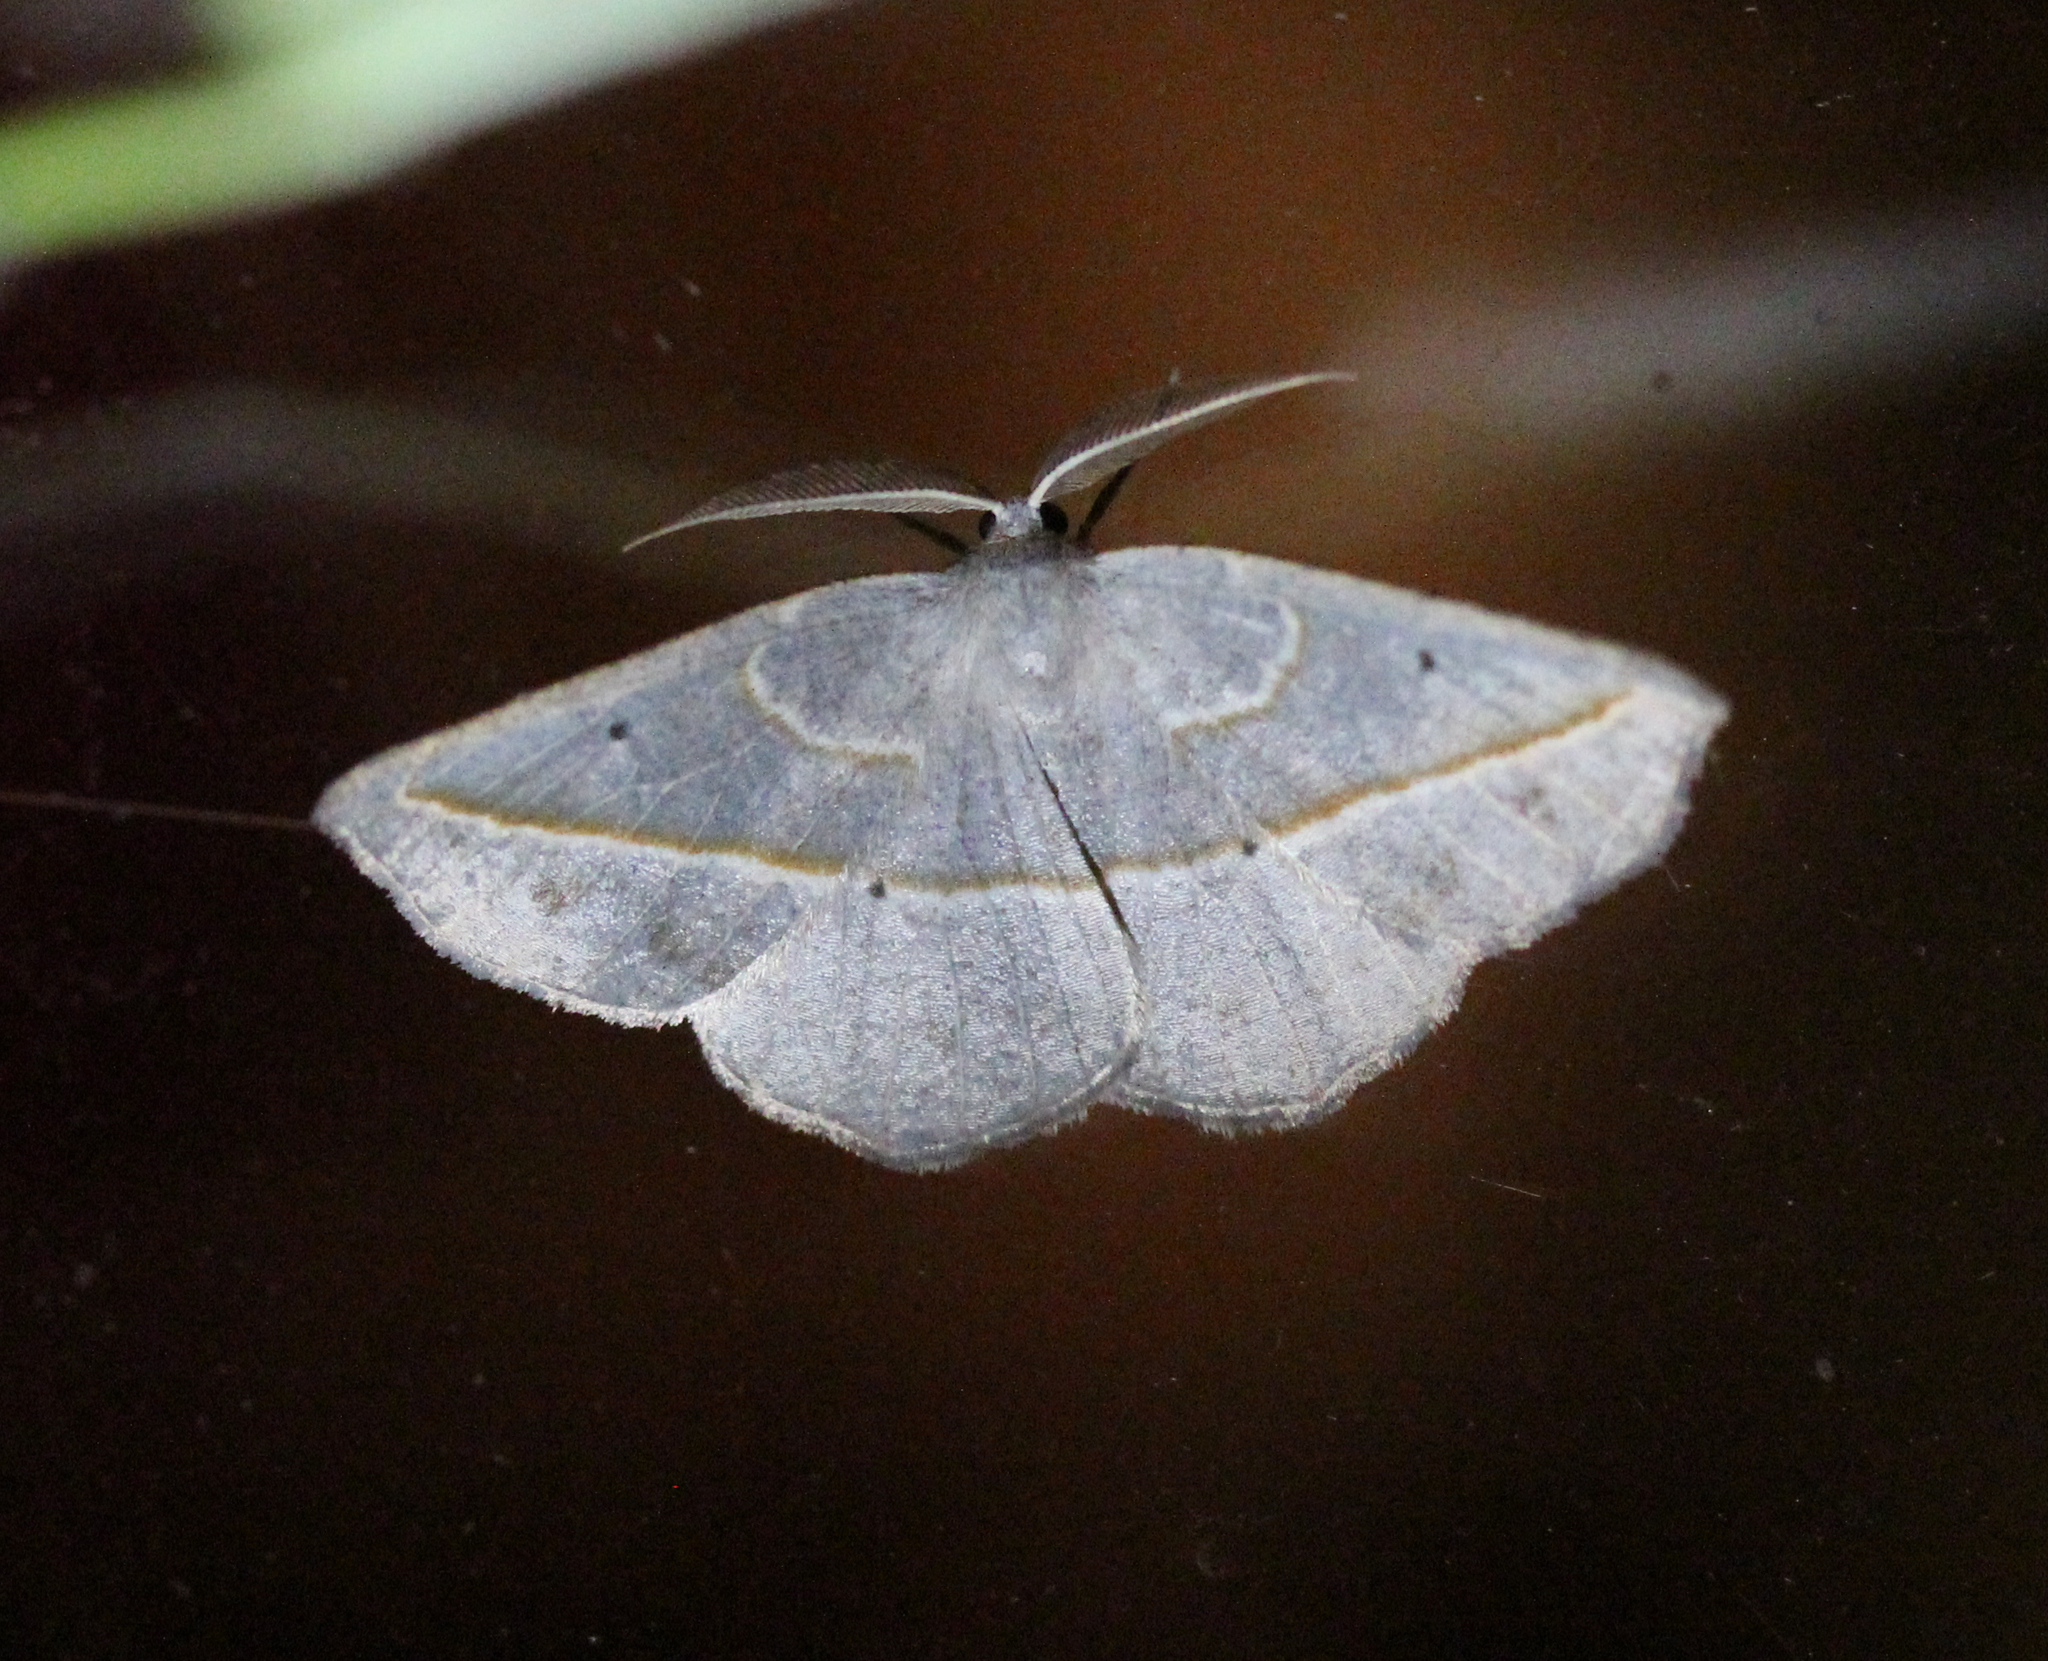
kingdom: Animalia
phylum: Arthropoda
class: Insecta
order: Lepidoptera
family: Geometridae
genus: Eusarca
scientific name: Eusarca confusaria
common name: Confused eusarca
